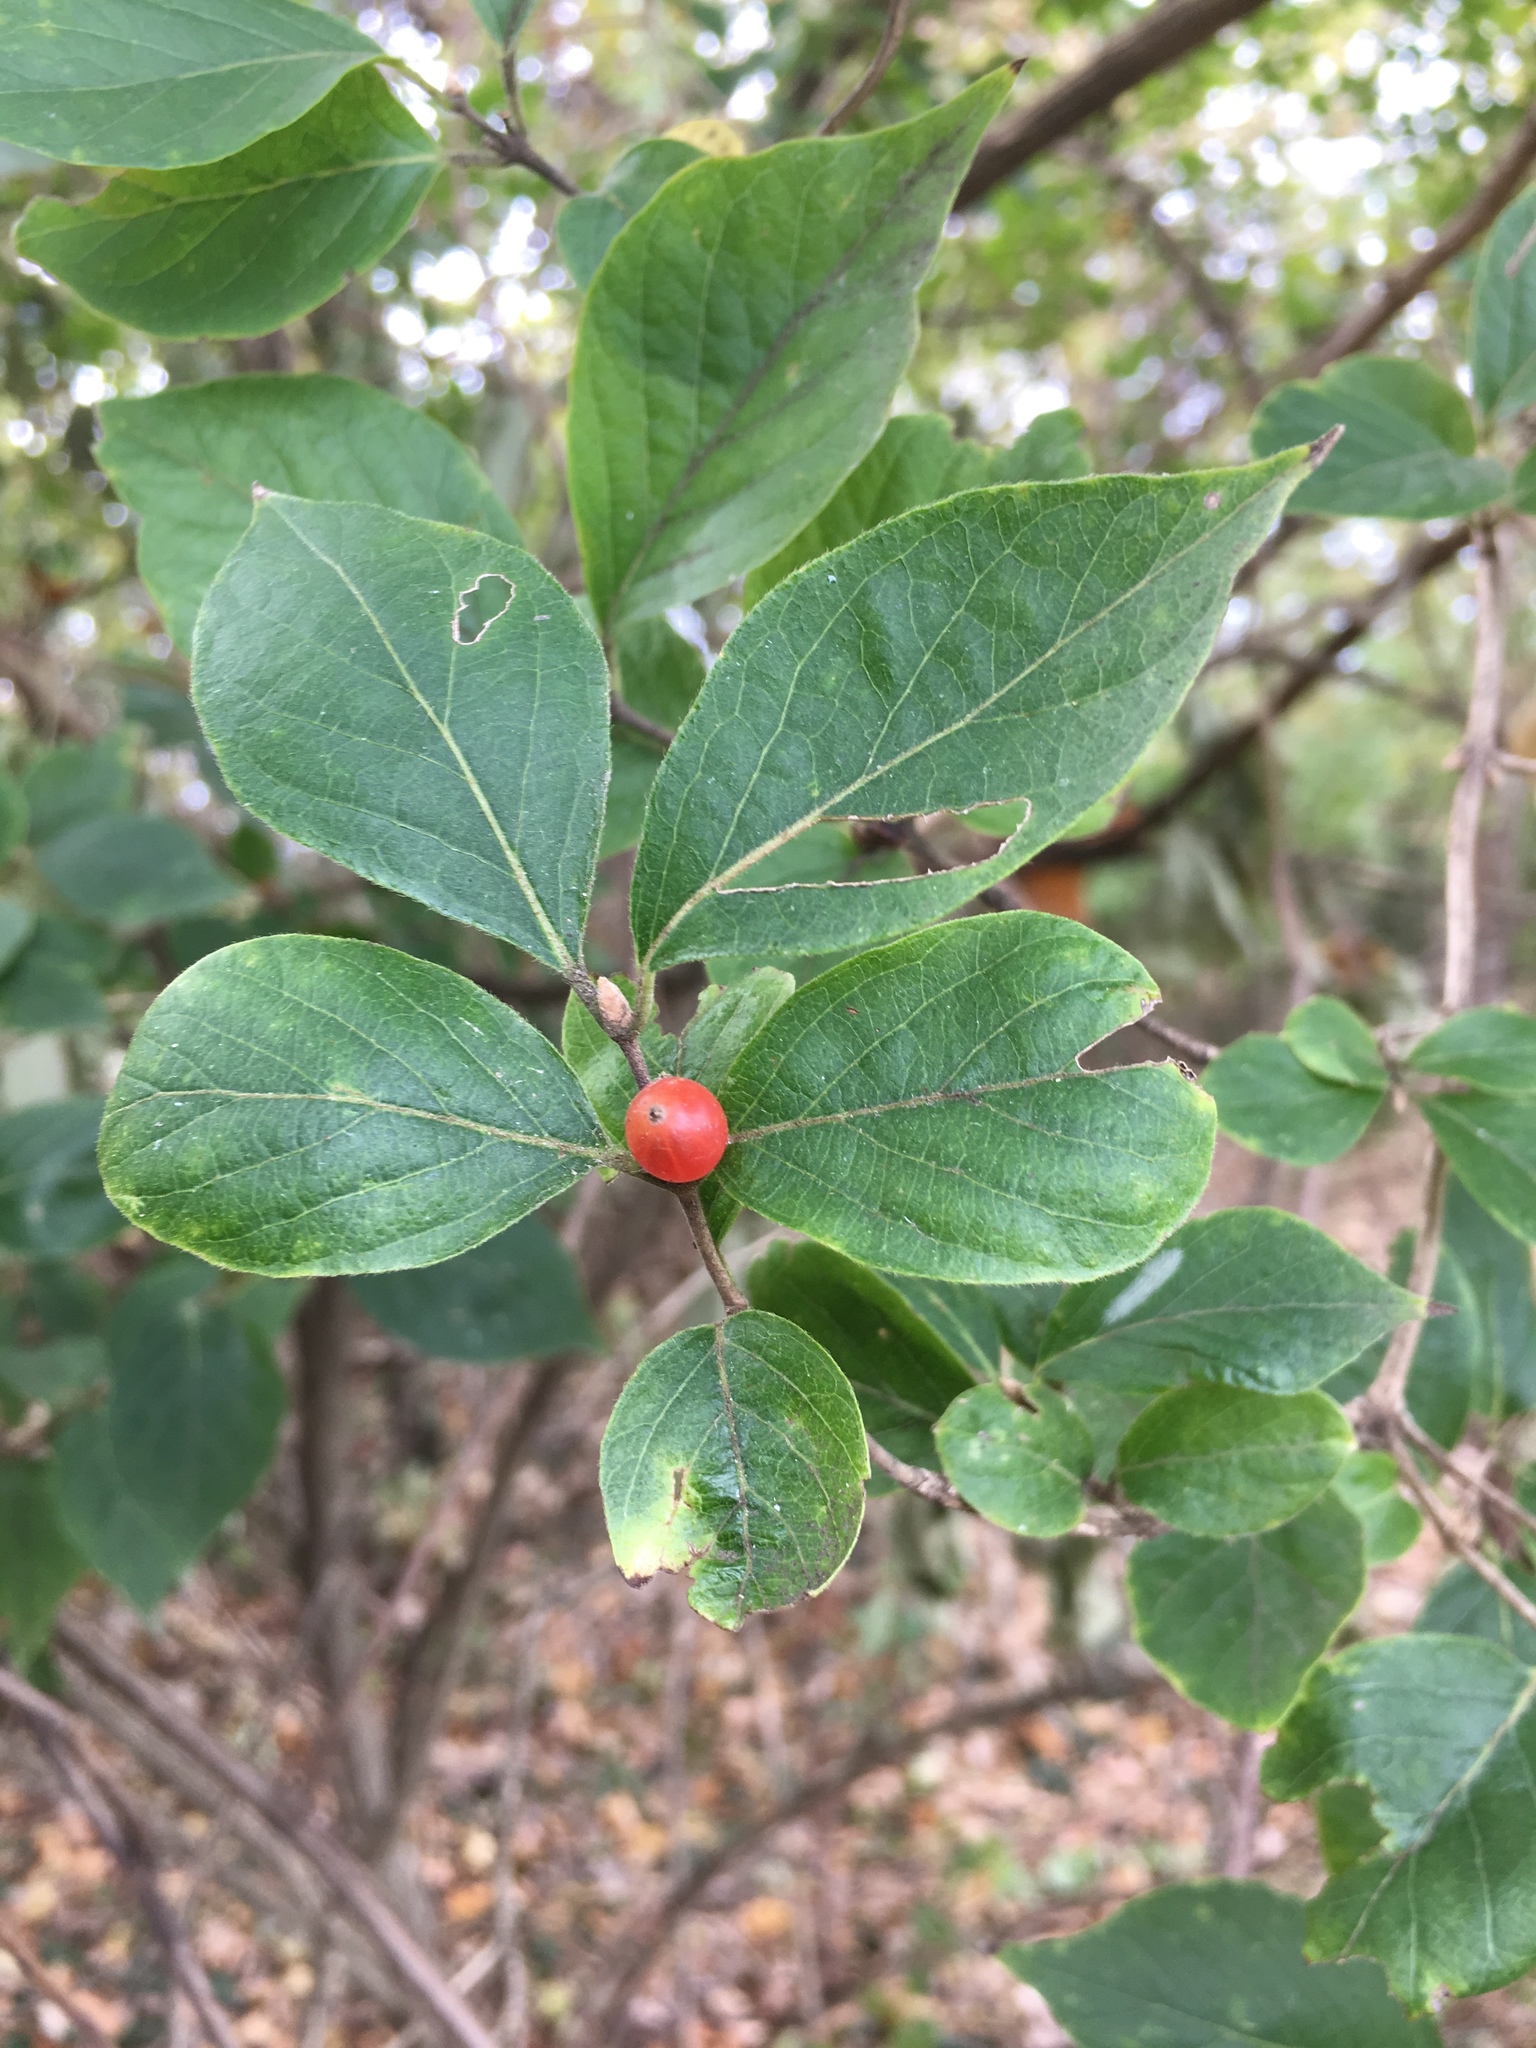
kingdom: Plantae
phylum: Tracheophyta
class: Magnoliopsida
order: Dipsacales
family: Caprifoliaceae
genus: Lonicera
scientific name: Lonicera maackii
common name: Amur honeysuckle
